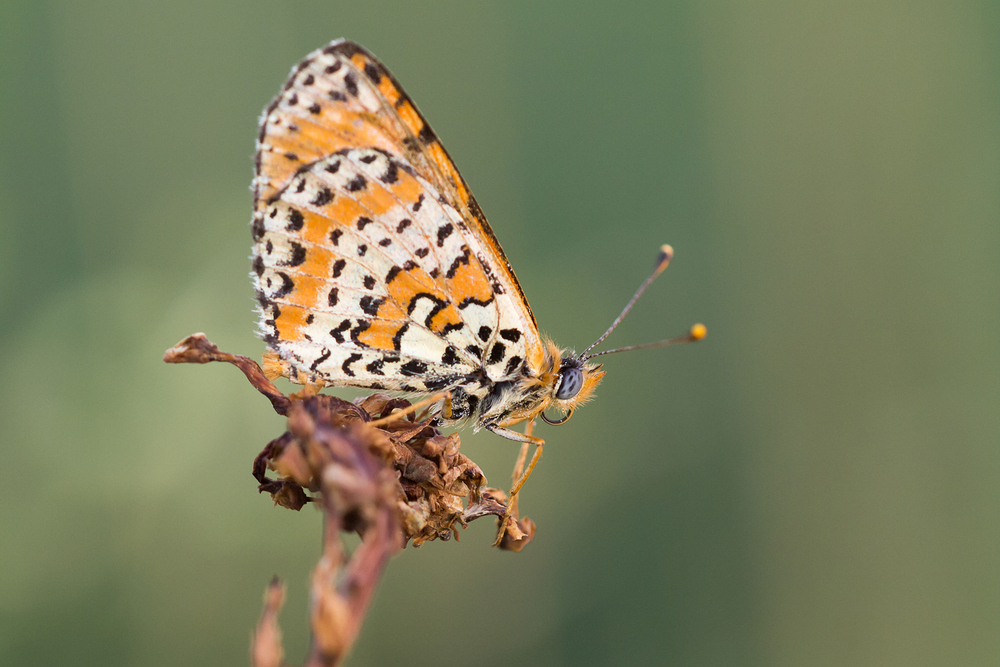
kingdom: Animalia
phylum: Arthropoda
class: Insecta
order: Lepidoptera
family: Nymphalidae
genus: Melitaea
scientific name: Melitaea didyma
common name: Spotted fritillary
